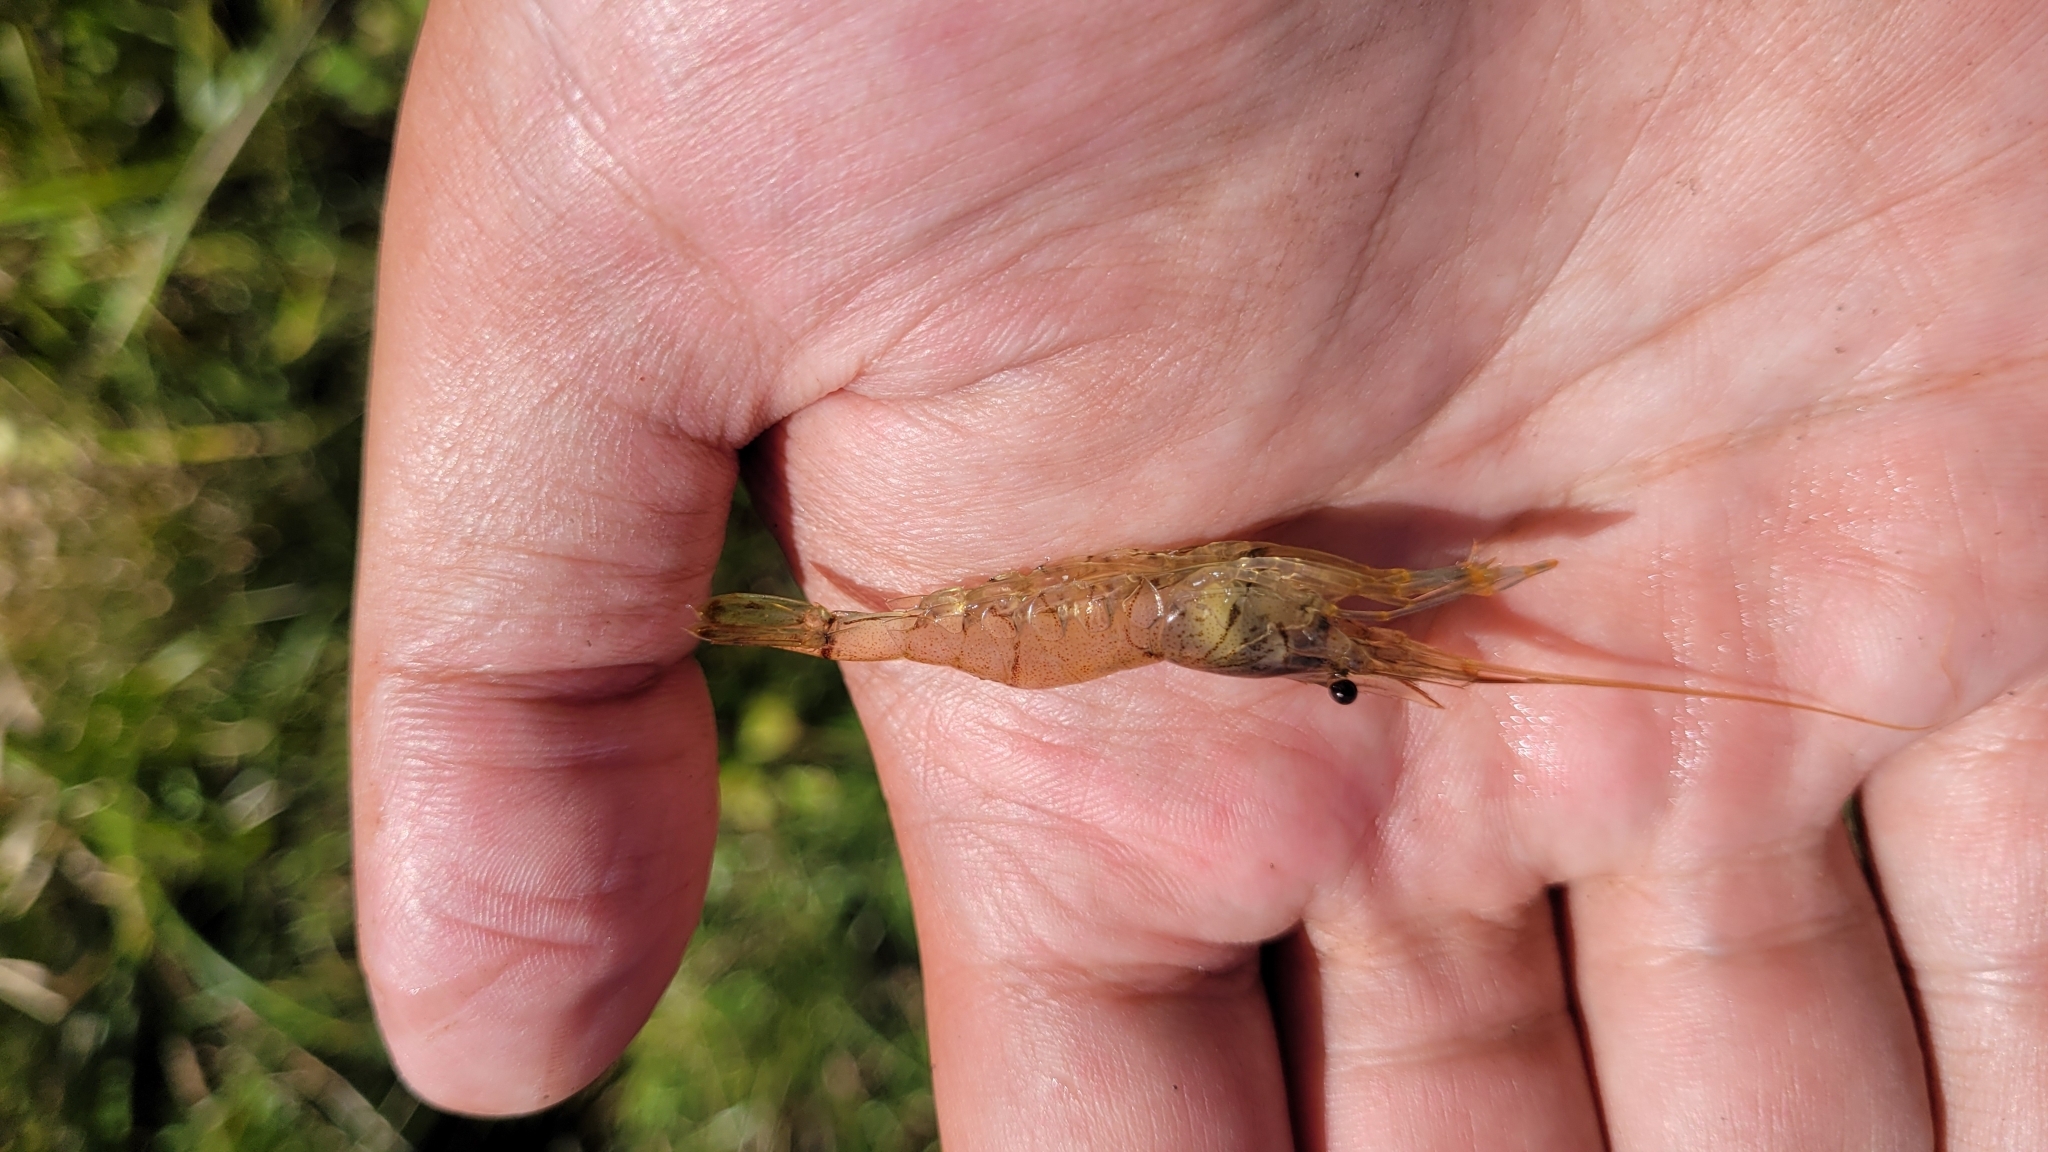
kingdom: Animalia
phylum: Arthropoda
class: Malacostraca
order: Decapoda
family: Palaemonidae
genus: Palaemon
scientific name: Palaemon paucidens
